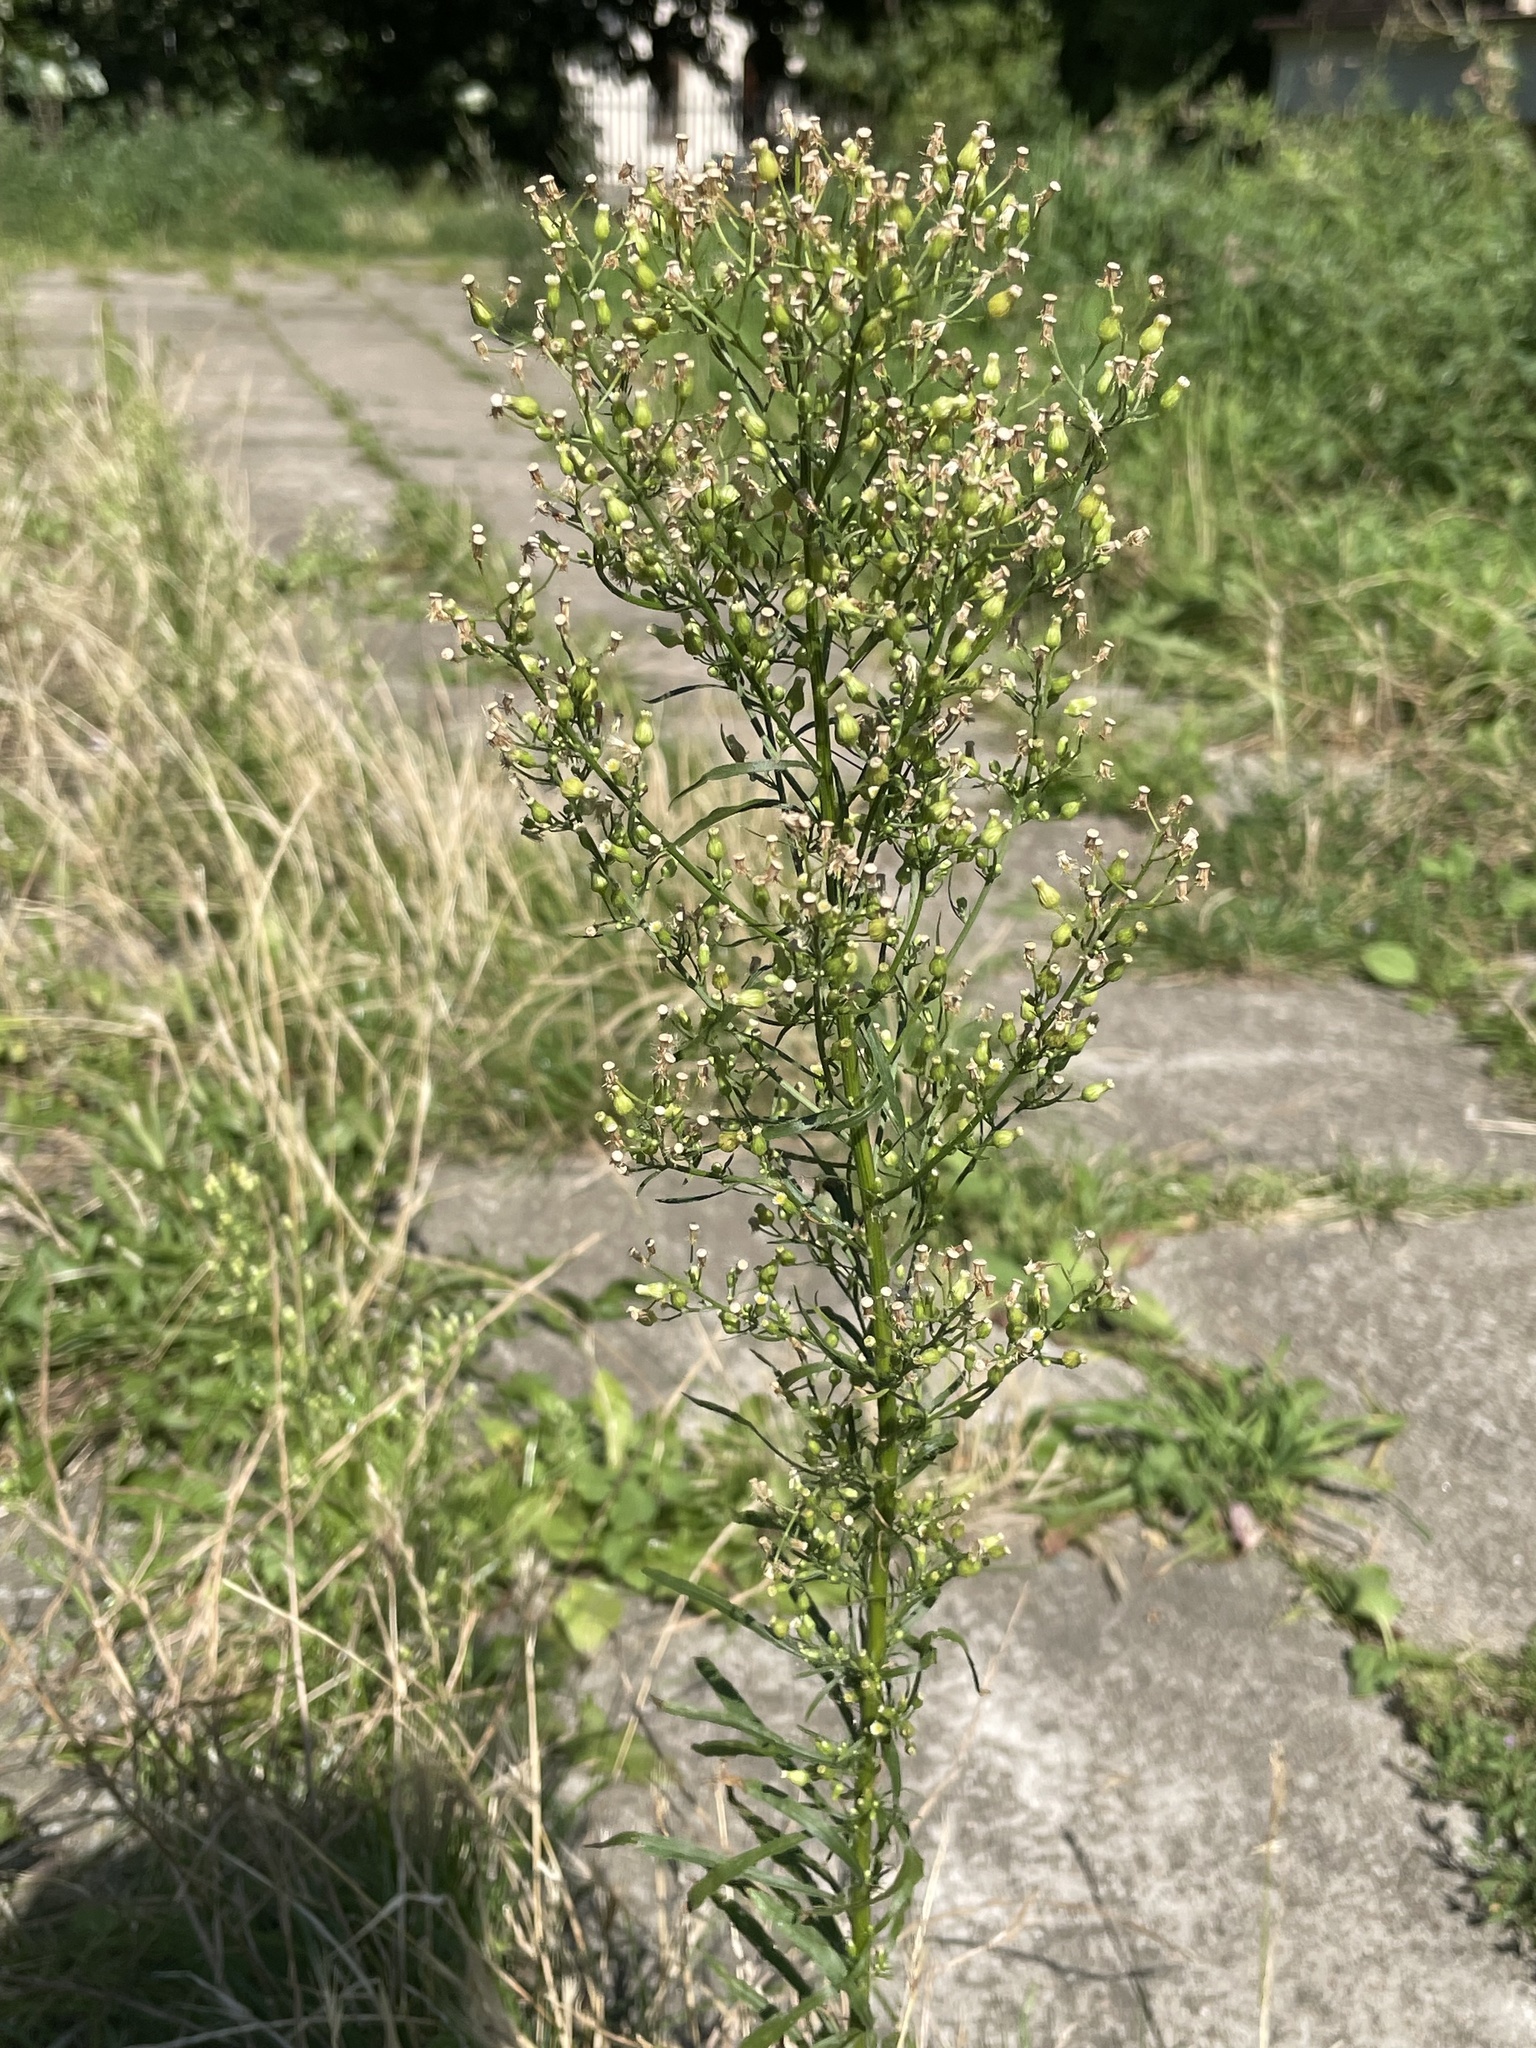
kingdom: Plantae
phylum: Tracheophyta
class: Magnoliopsida
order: Asterales
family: Asteraceae
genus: Erigeron
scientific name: Erigeron canadensis
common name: Canadian fleabane
